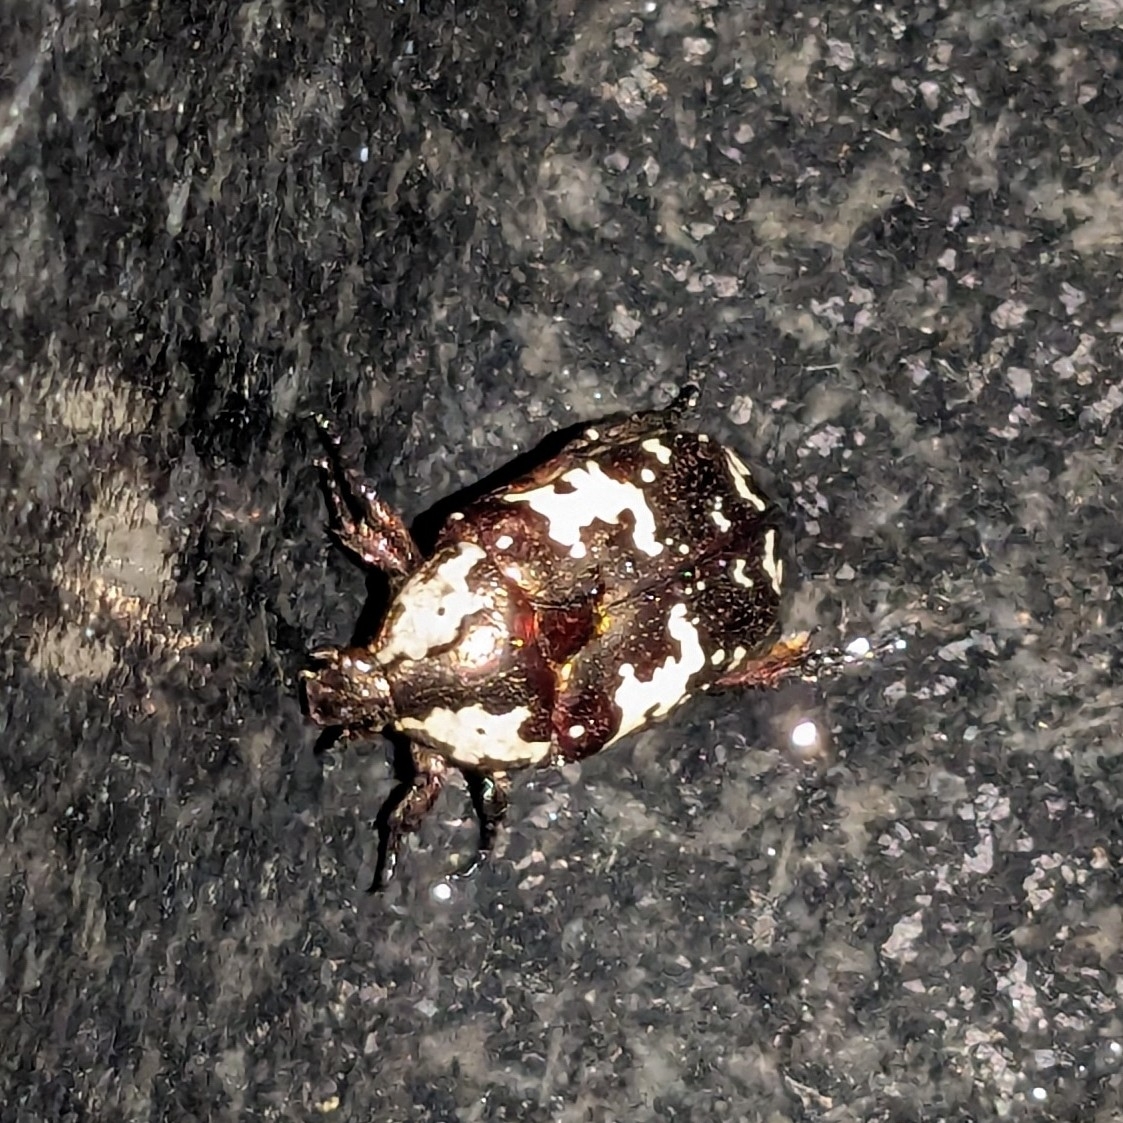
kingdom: Animalia
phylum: Arthropoda
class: Insecta
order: Coleoptera
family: Scarabaeidae
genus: Protaetia
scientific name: Protaetia aurichalcea
